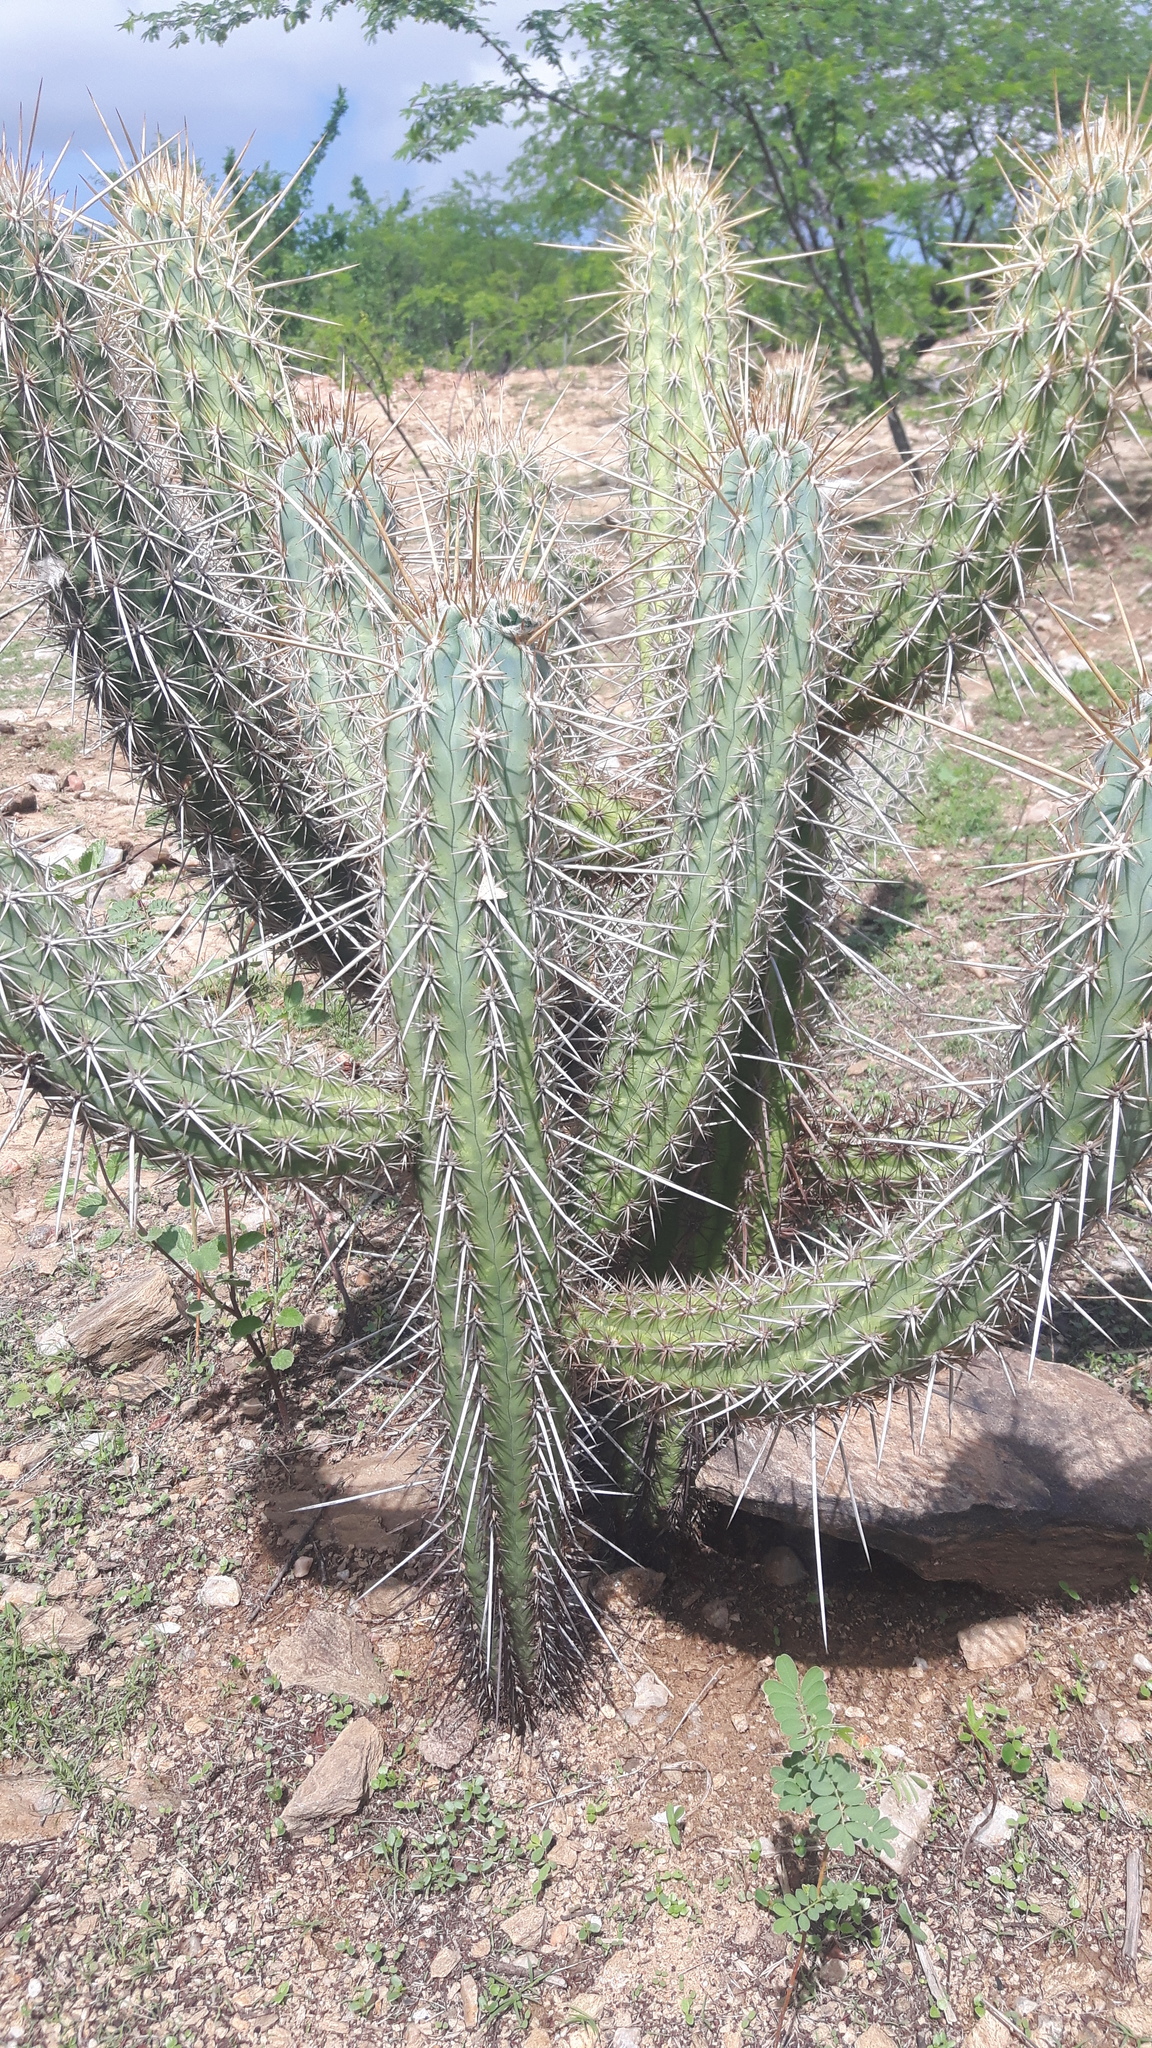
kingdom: Plantae
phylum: Tracheophyta
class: Magnoliopsida
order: Caryophyllales
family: Cactaceae
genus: Xiquexique
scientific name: Xiquexique gounellei
